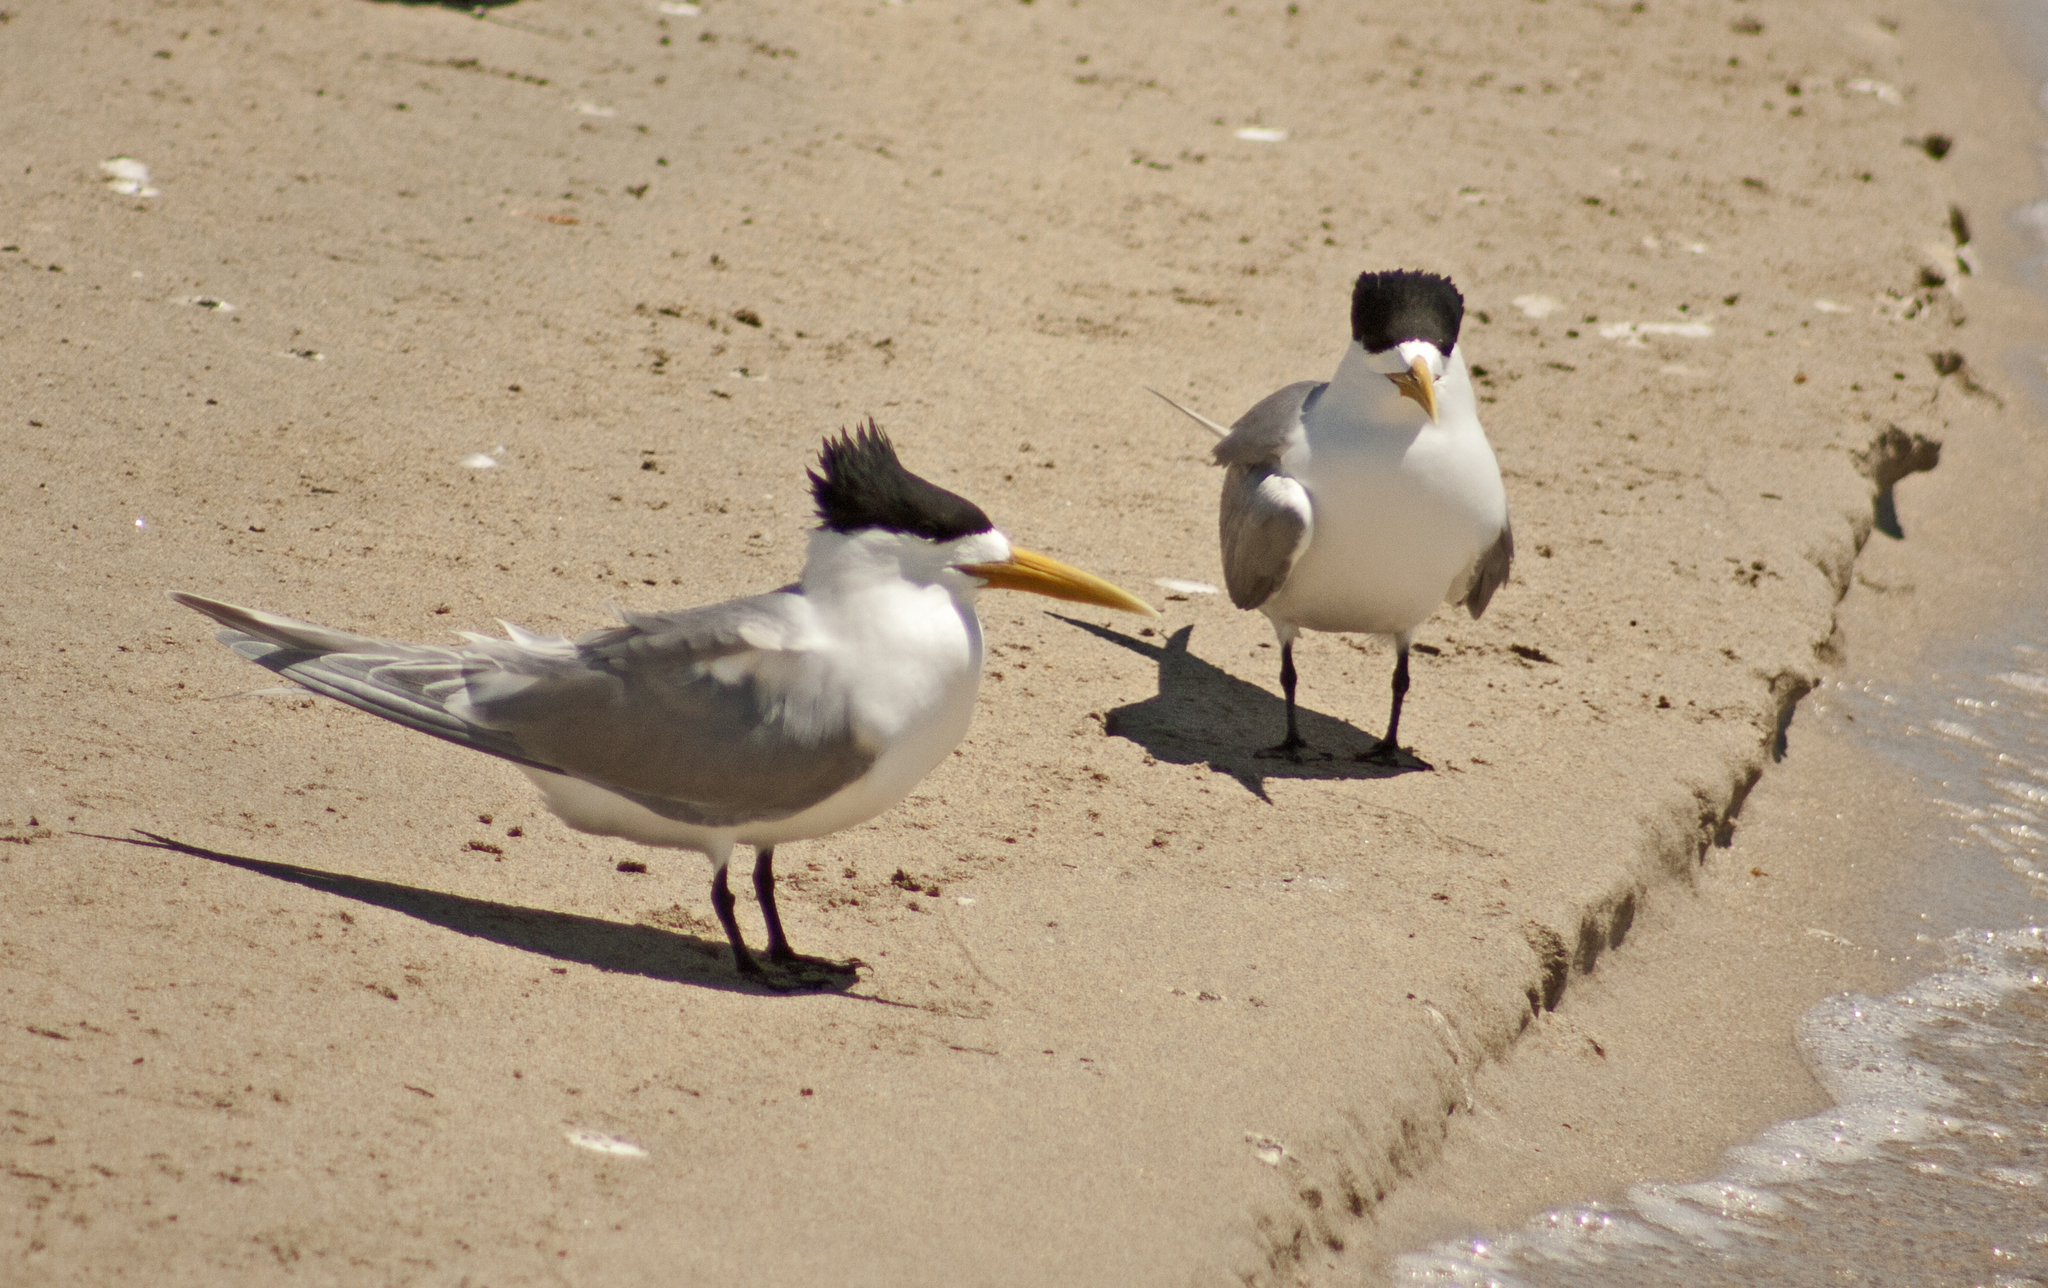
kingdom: Animalia
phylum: Chordata
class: Aves
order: Charadriiformes
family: Laridae
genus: Thalasseus
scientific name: Thalasseus bergii
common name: Greater crested tern
